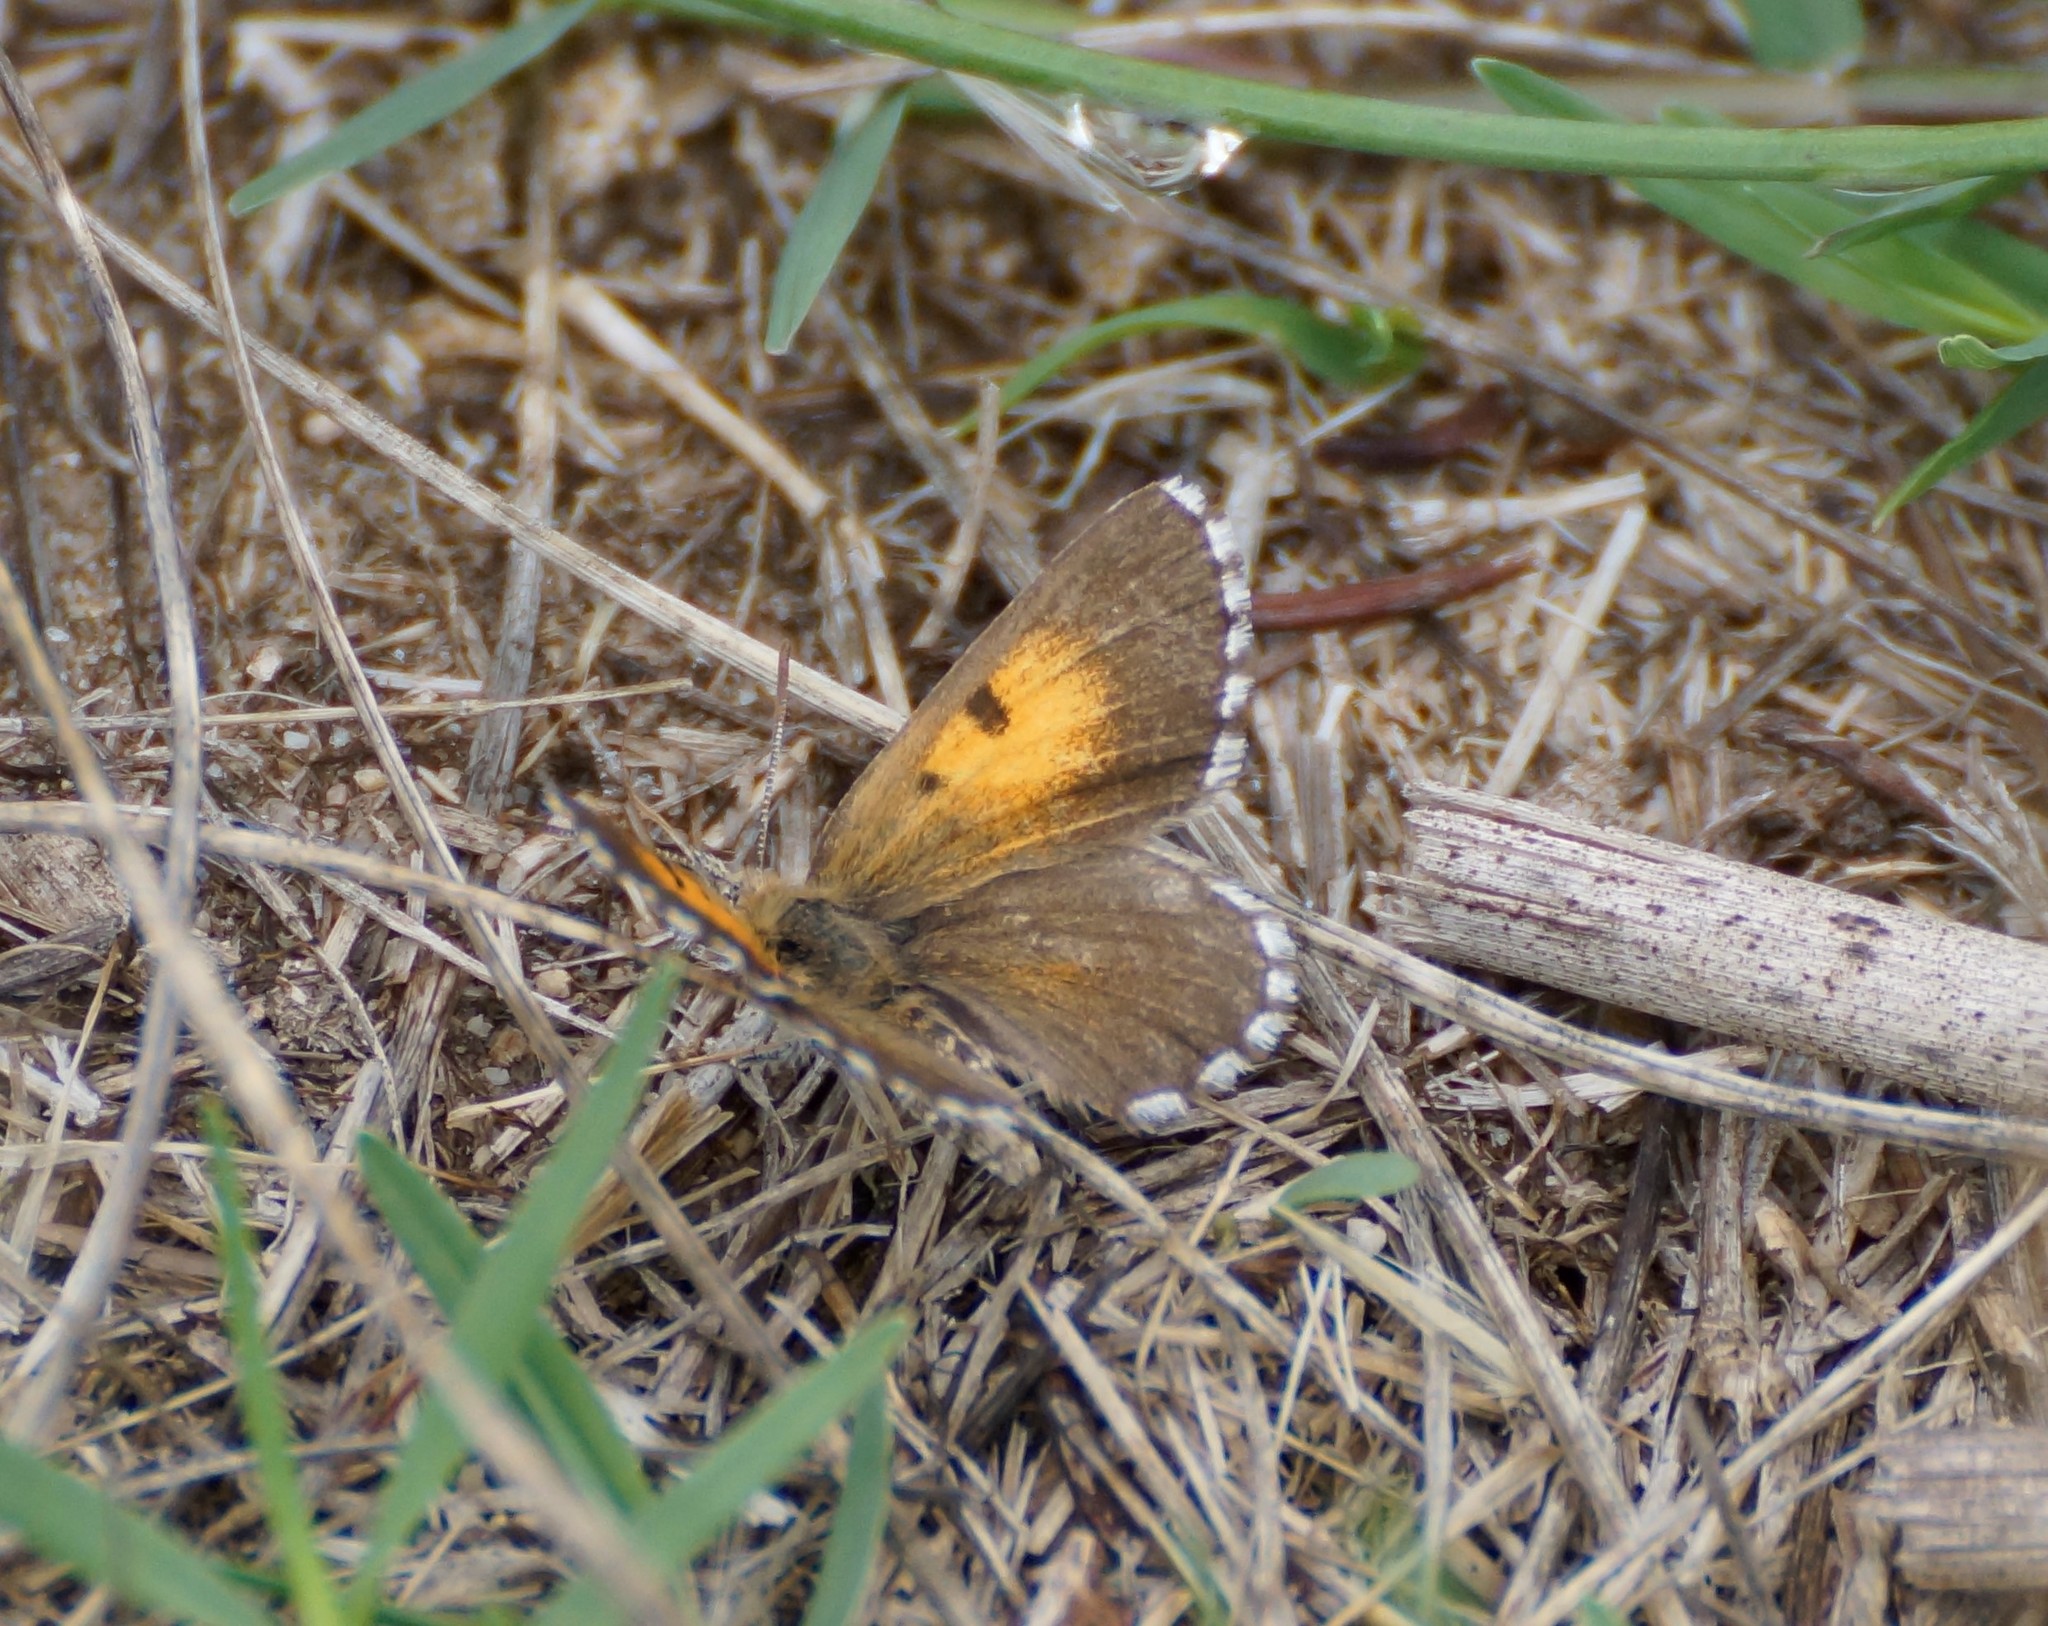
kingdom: Animalia
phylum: Arthropoda
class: Insecta
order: Lepidoptera
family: Lycaenidae
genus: Lucia
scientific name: Lucia limbaria
